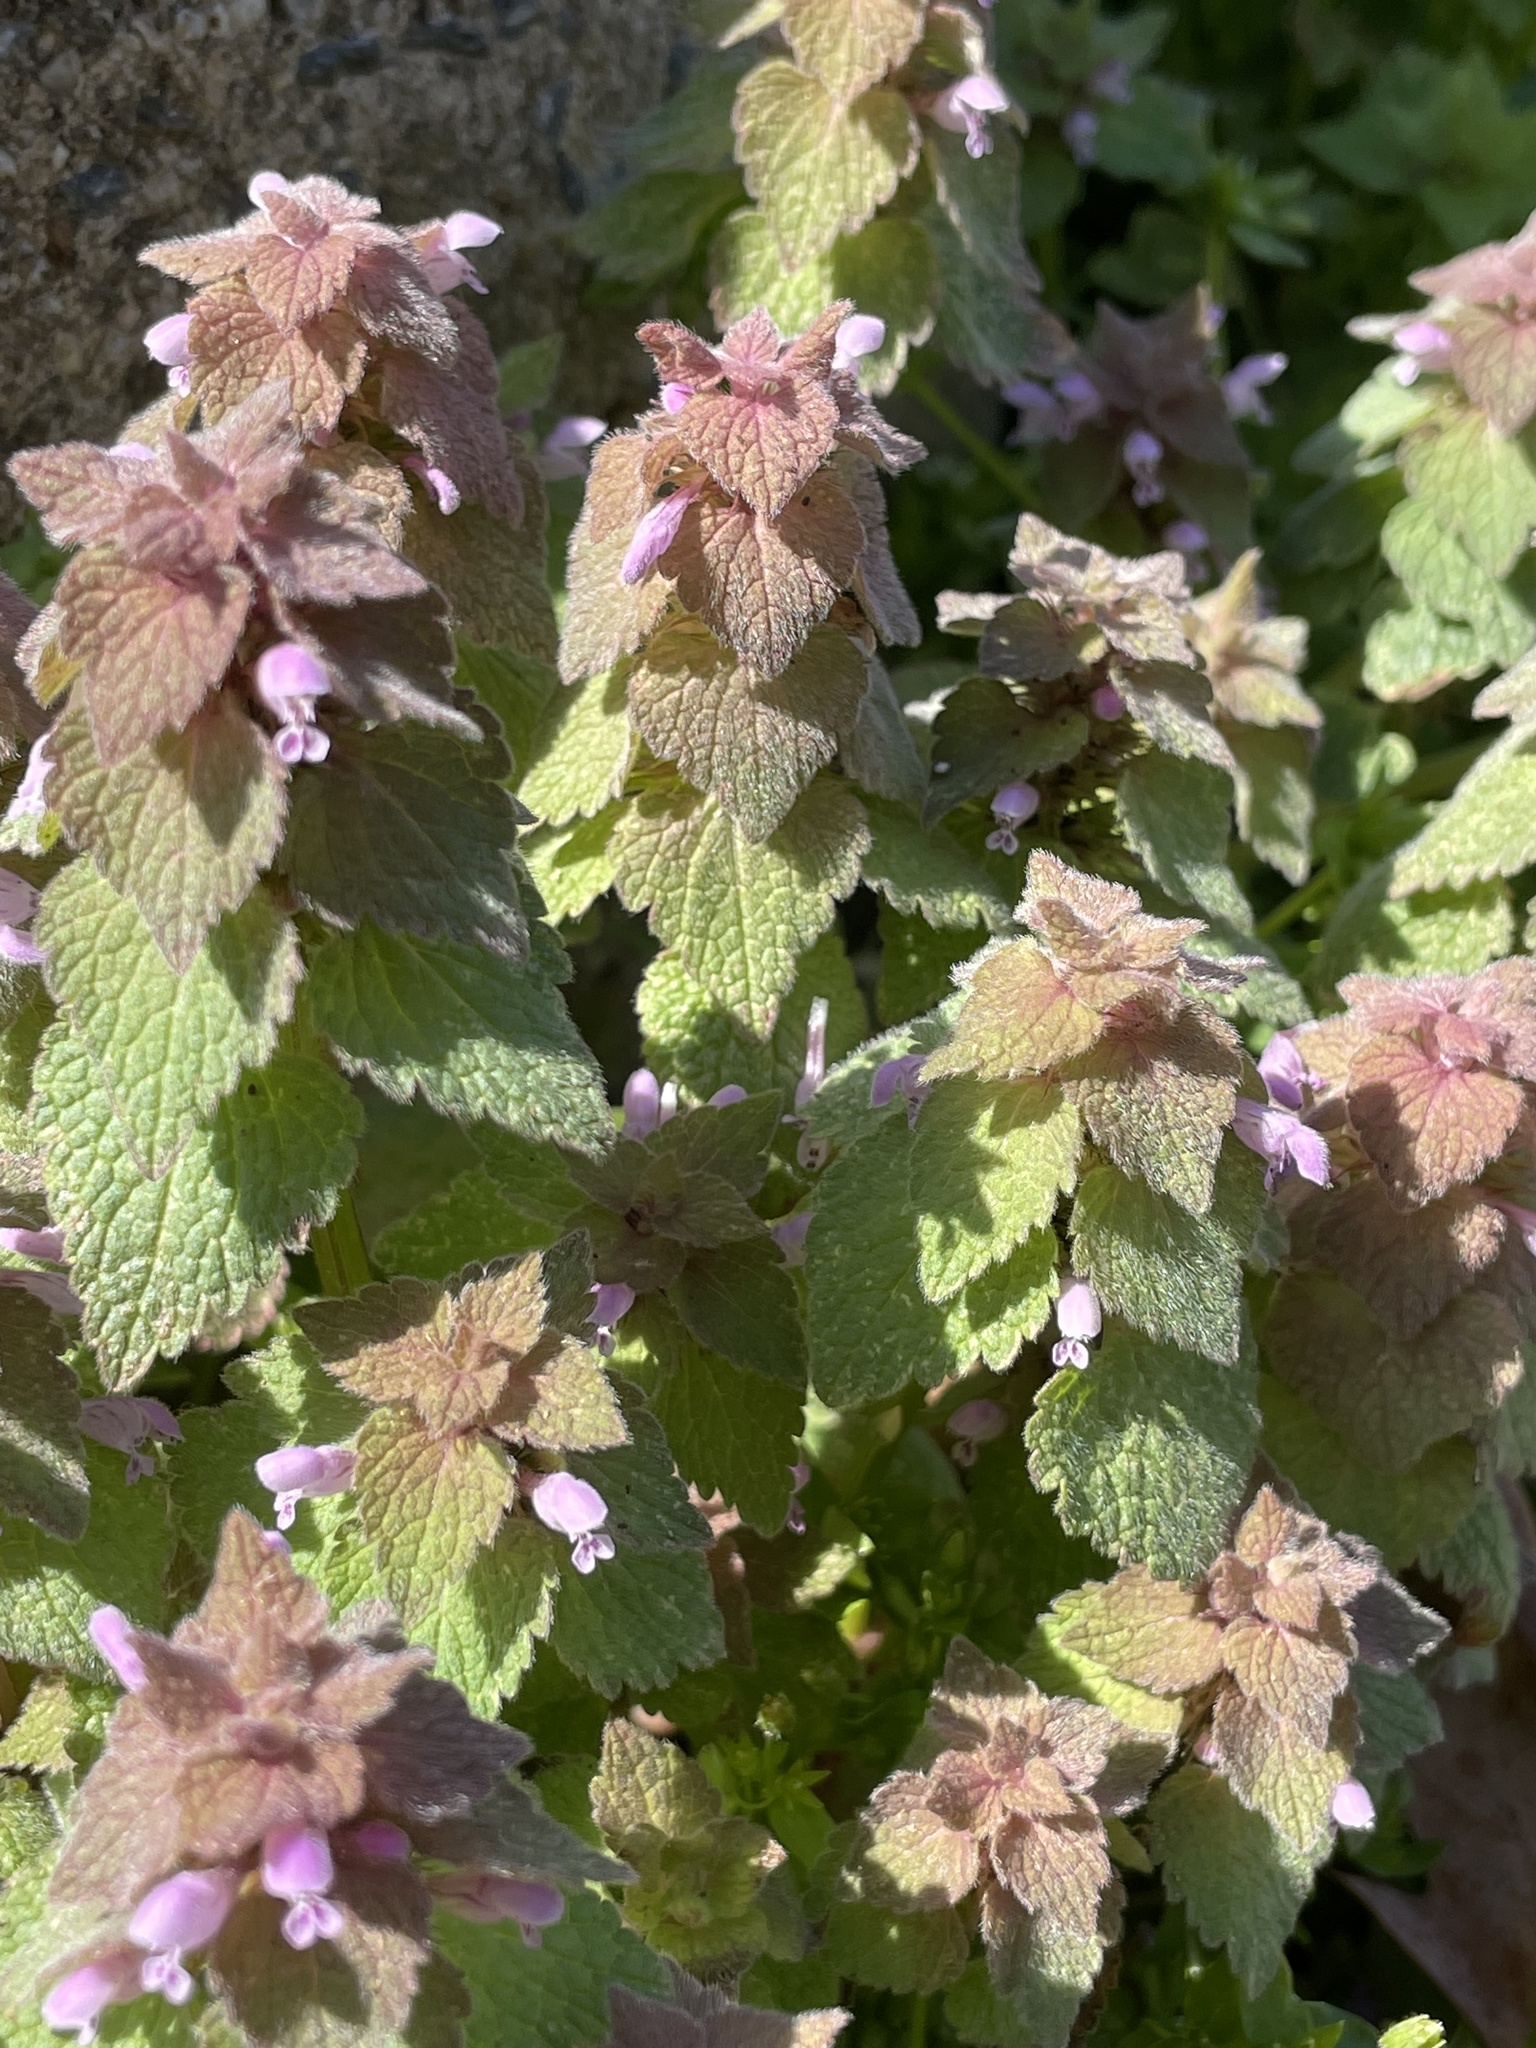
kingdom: Plantae
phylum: Tracheophyta
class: Magnoliopsida
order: Lamiales
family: Lamiaceae
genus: Lamium
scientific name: Lamium purpureum
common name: Red dead-nettle
